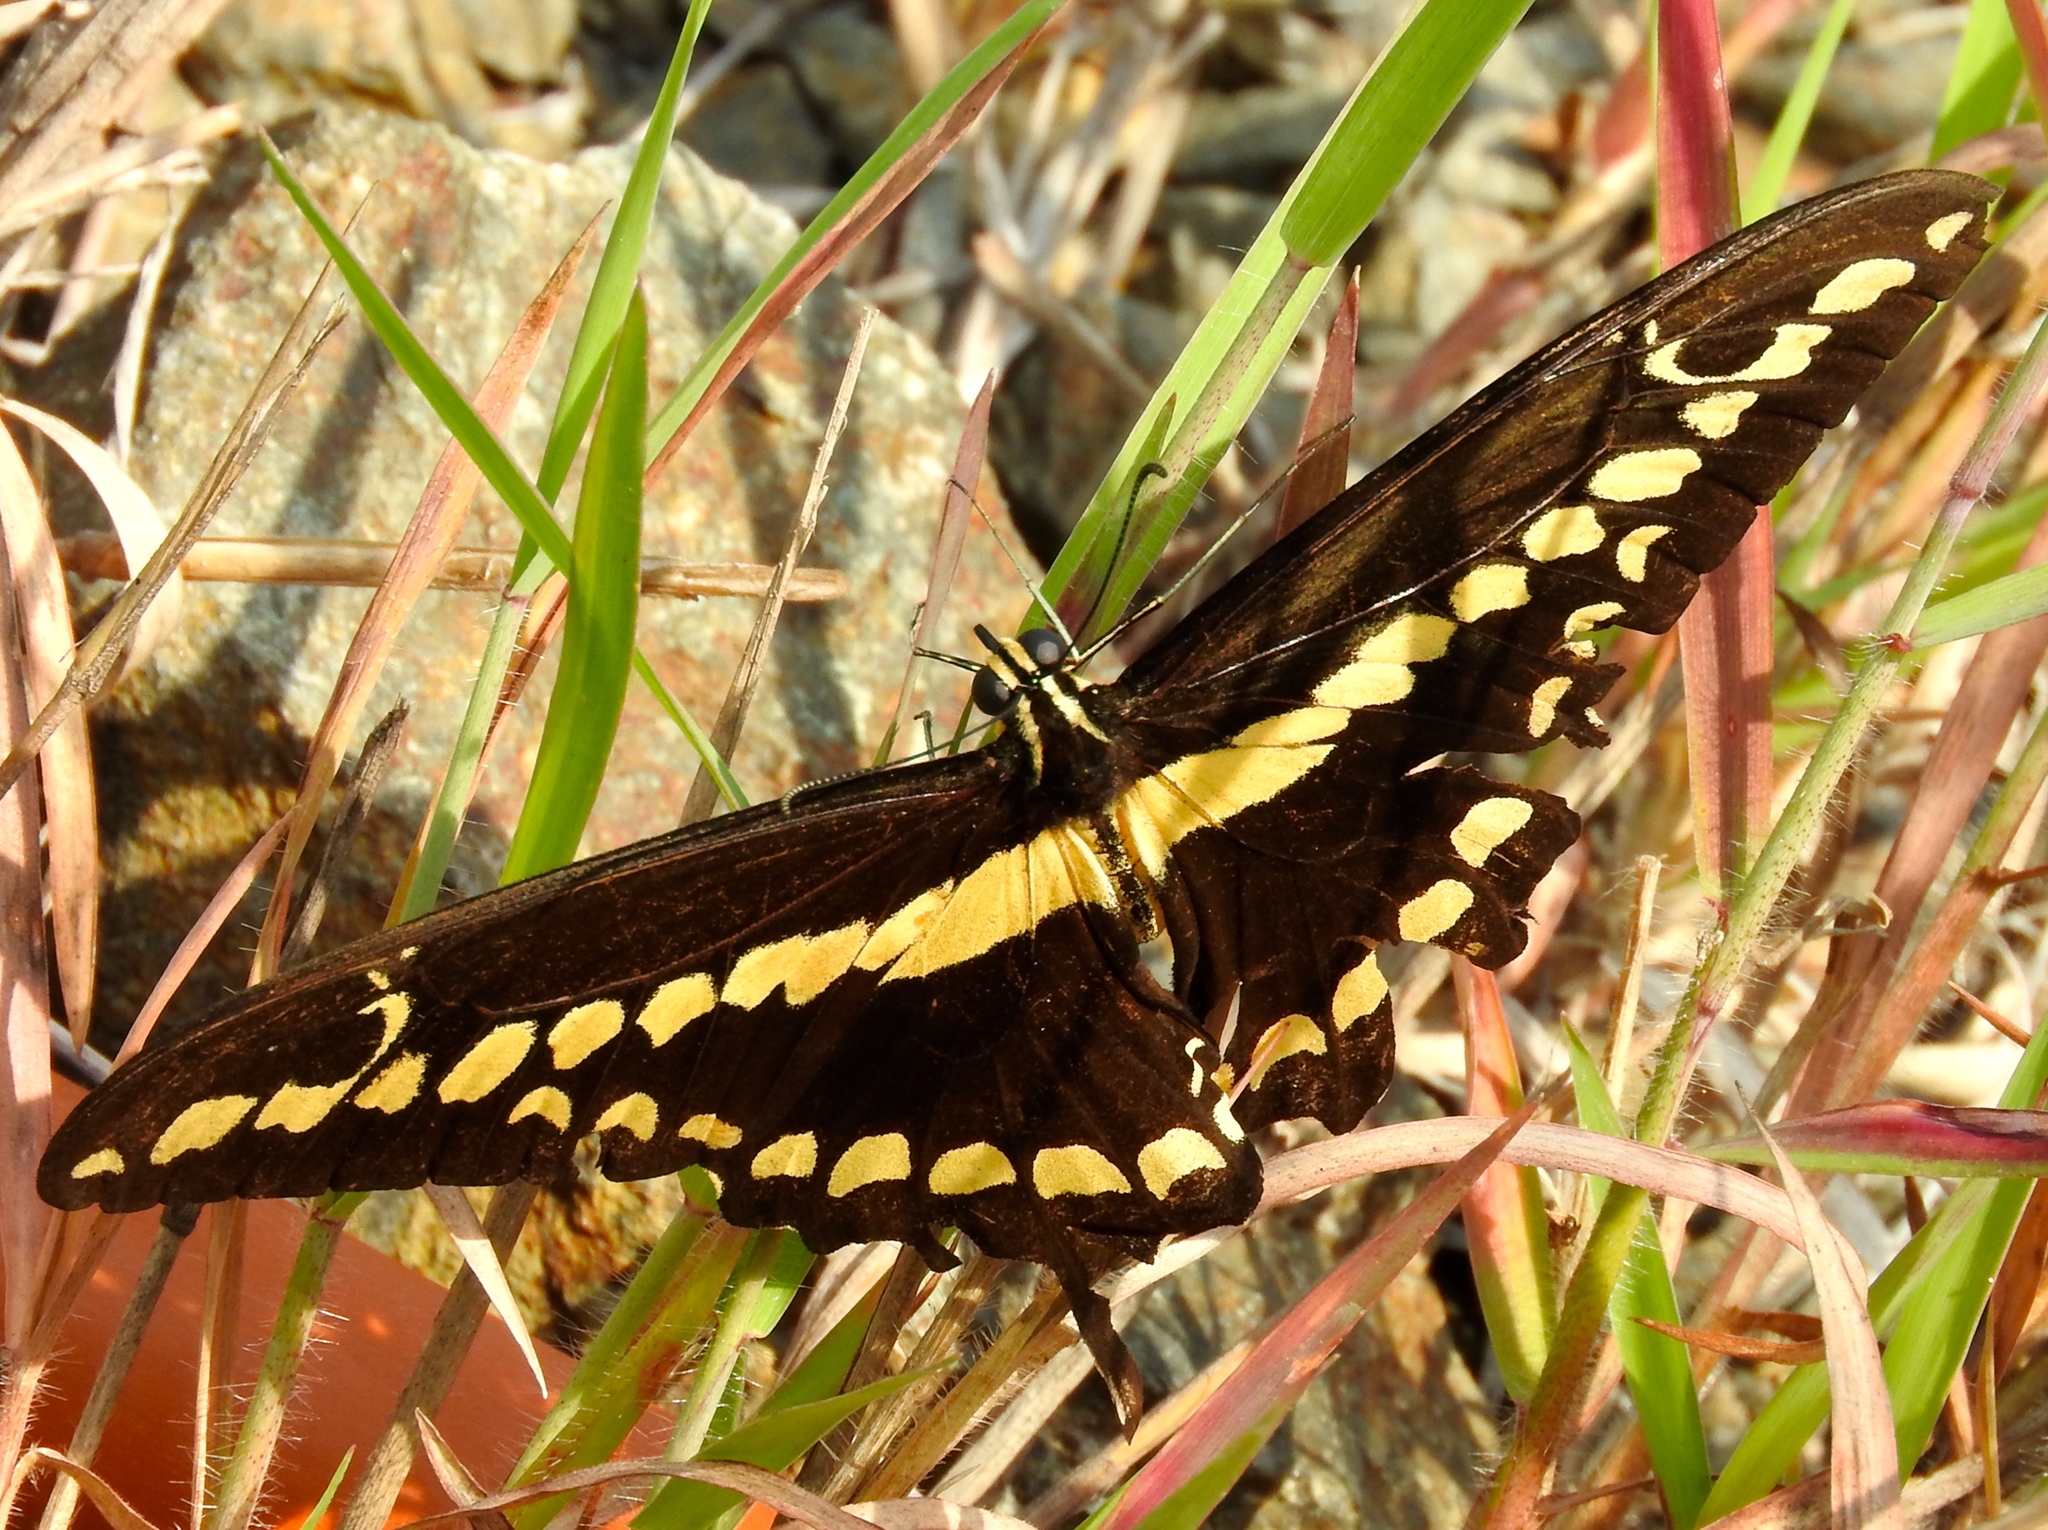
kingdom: Animalia
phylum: Arthropoda
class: Insecta
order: Lepidoptera
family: Papilionidae
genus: Papilio
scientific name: Papilio rumiko
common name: Western giant swallowtail
